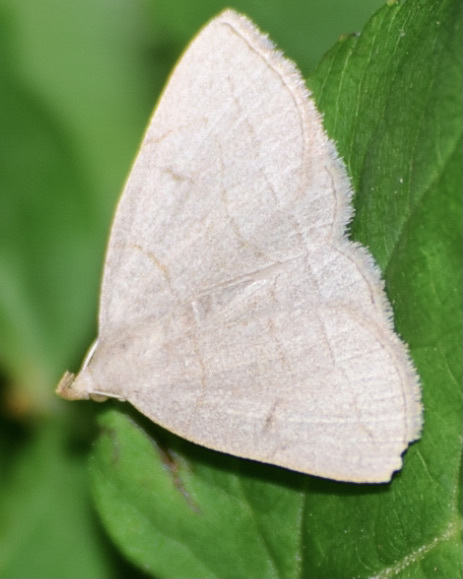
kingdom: Animalia
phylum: Arthropoda
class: Insecta
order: Lepidoptera
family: Erebidae
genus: Zanclognatha
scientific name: Zanclognatha pedipilalis
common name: Grayish fan-foot
